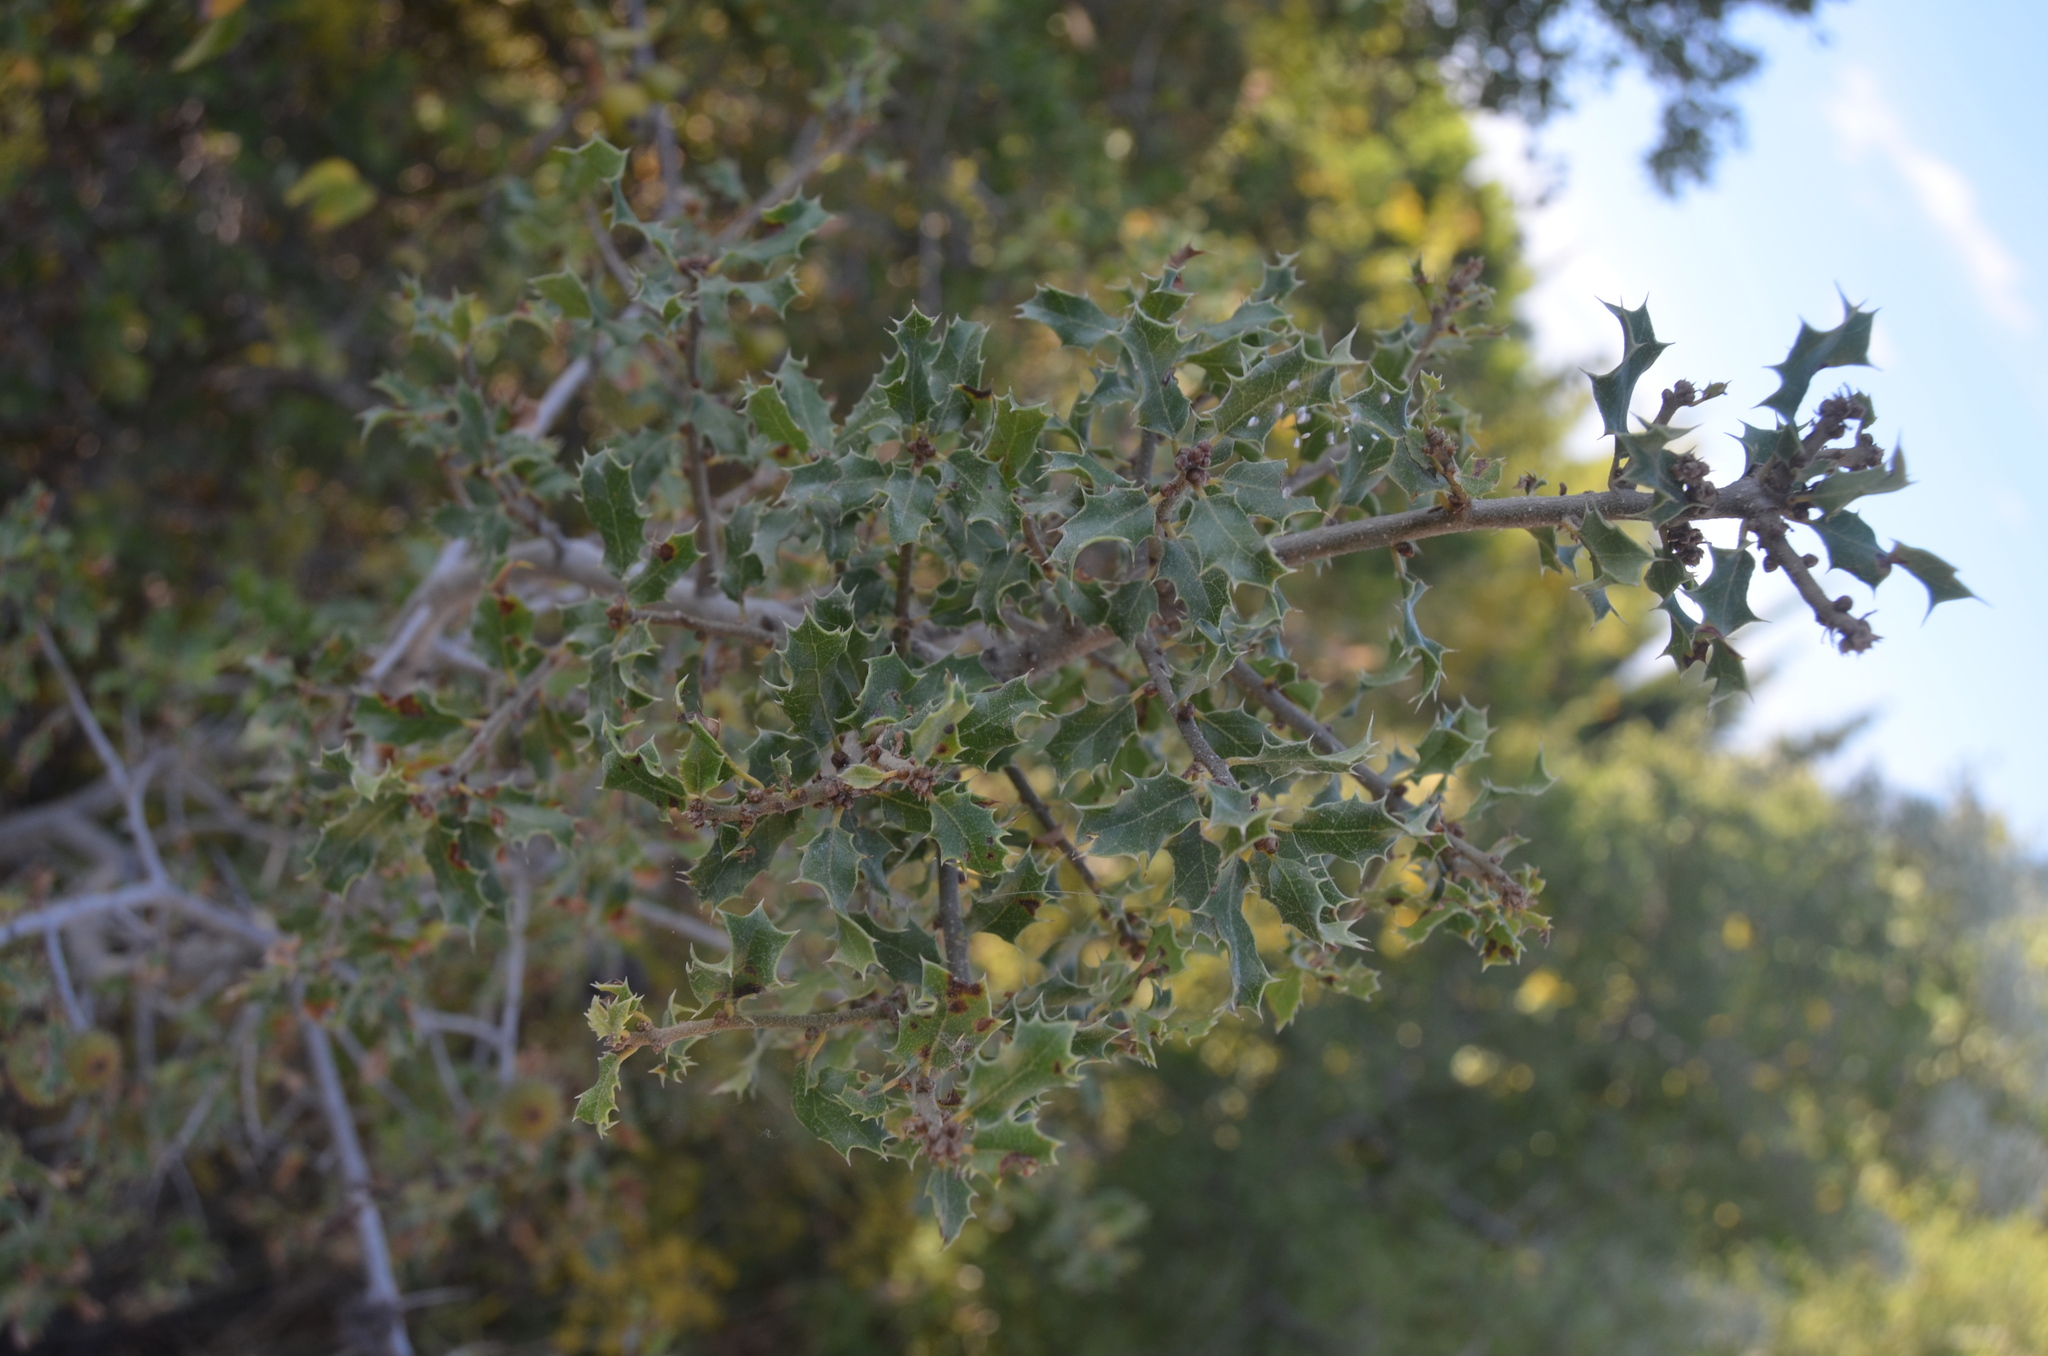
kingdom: Plantae
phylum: Tracheophyta
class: Magnoliopsida
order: Fagales
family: Fagaceae
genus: Quercus
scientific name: Quercus coccifera
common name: Kermes oak
